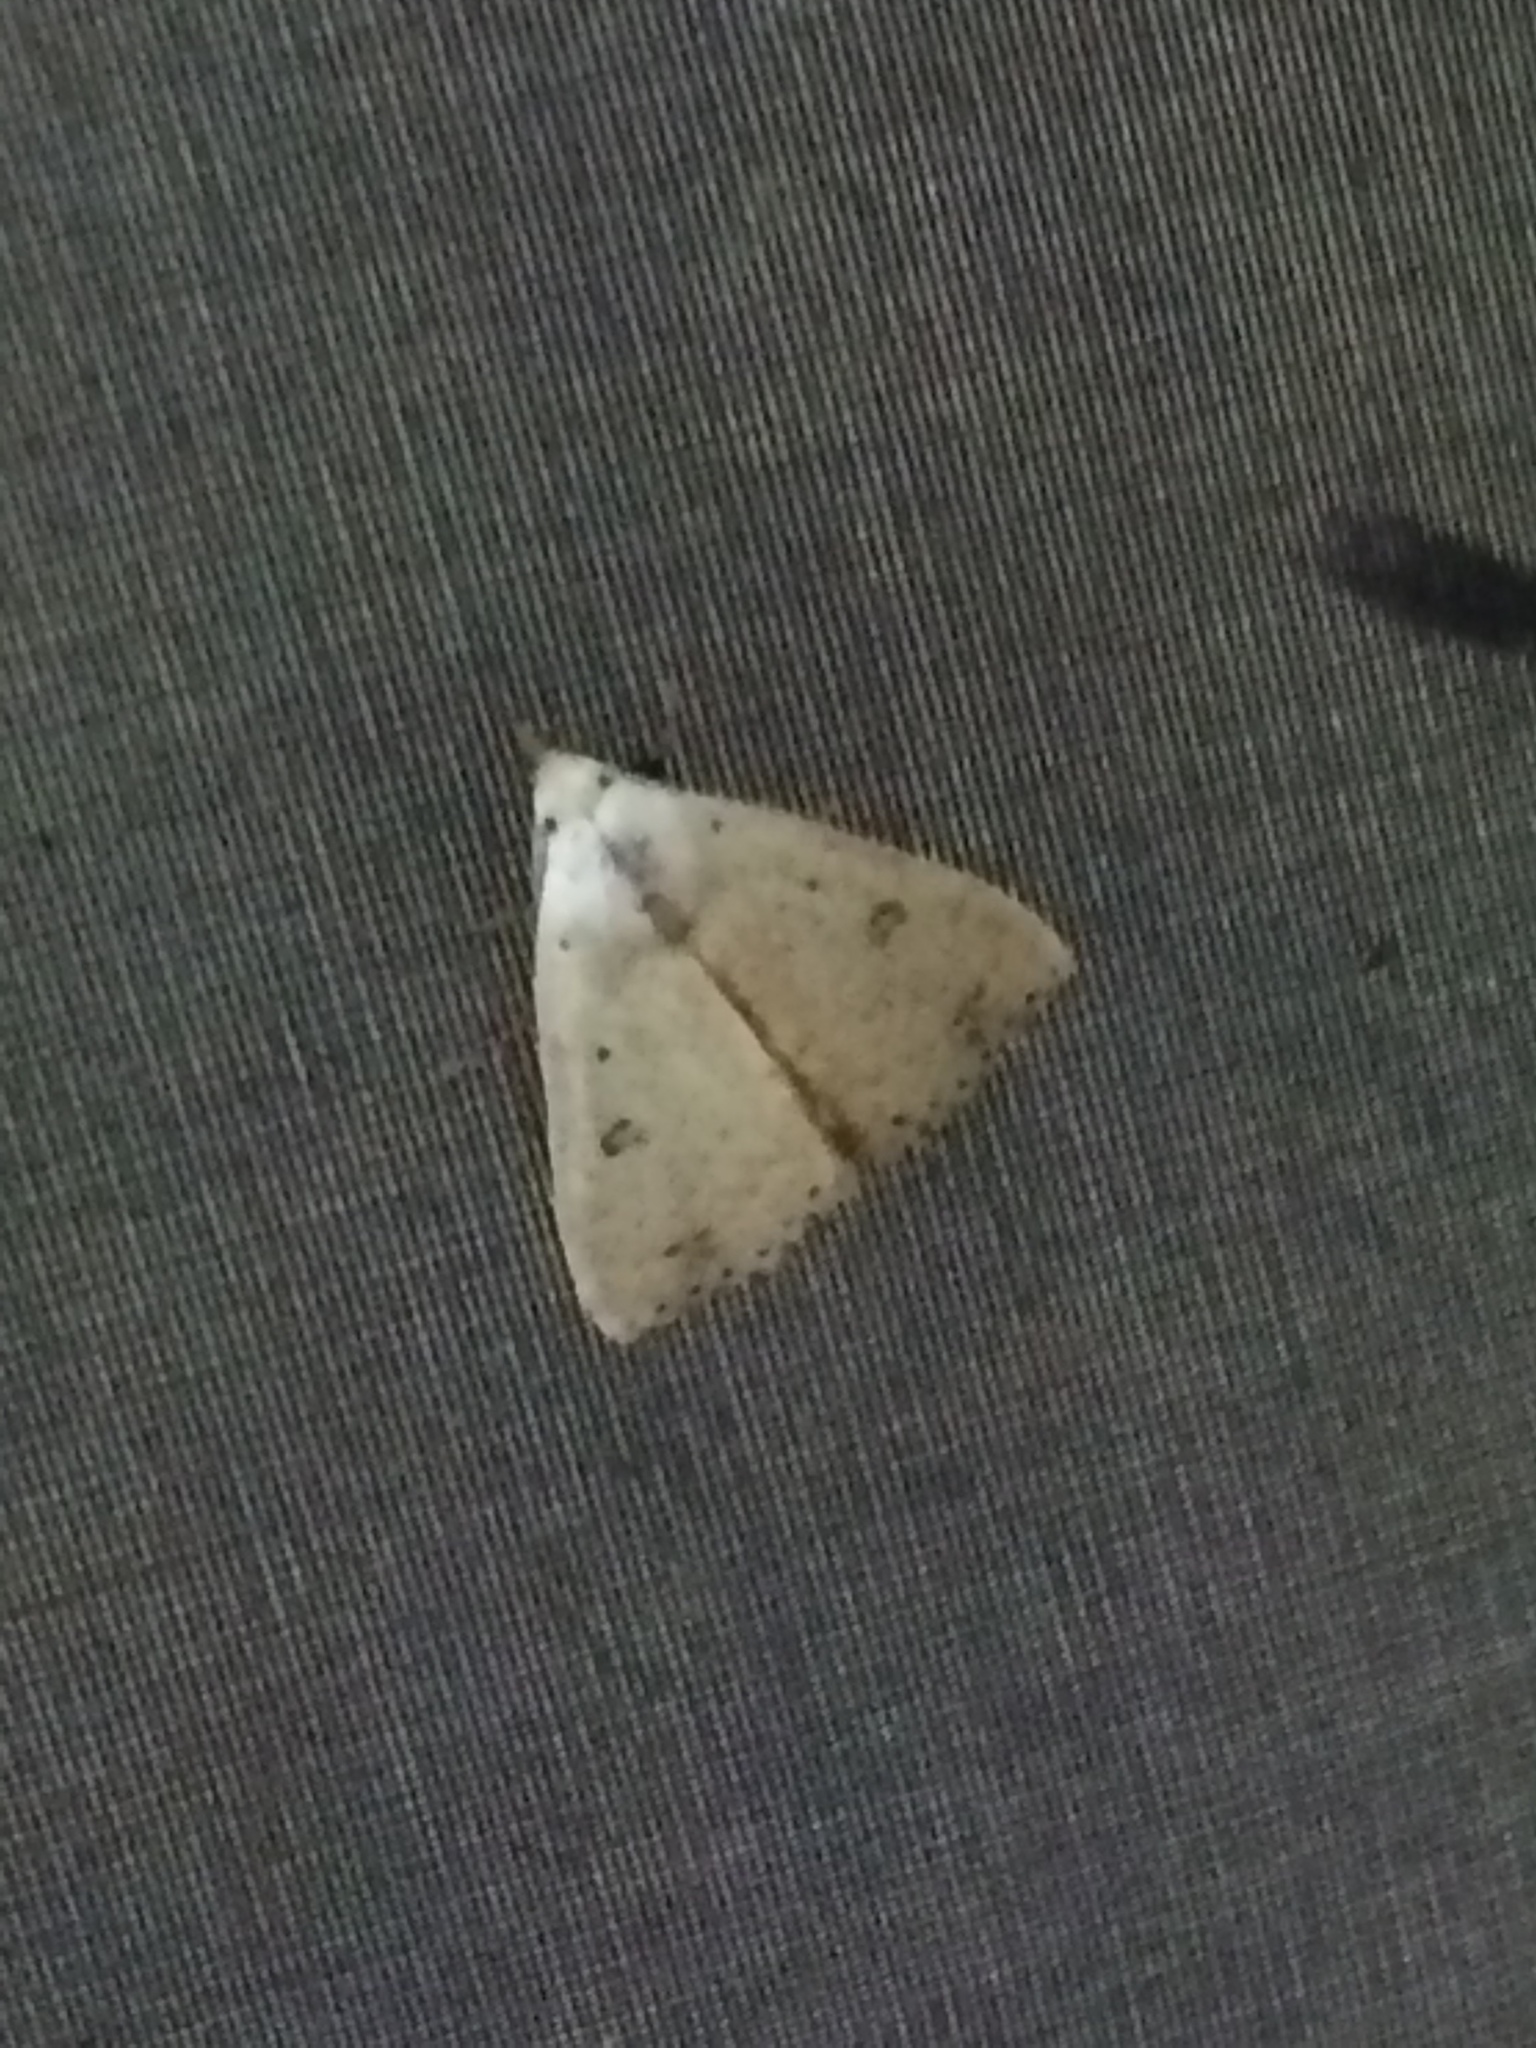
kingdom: Animalia
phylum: Arthropoda
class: Insecta
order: Lepidoptera
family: Erebidae
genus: Scolecocampa
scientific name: Scolecocampa liburna
